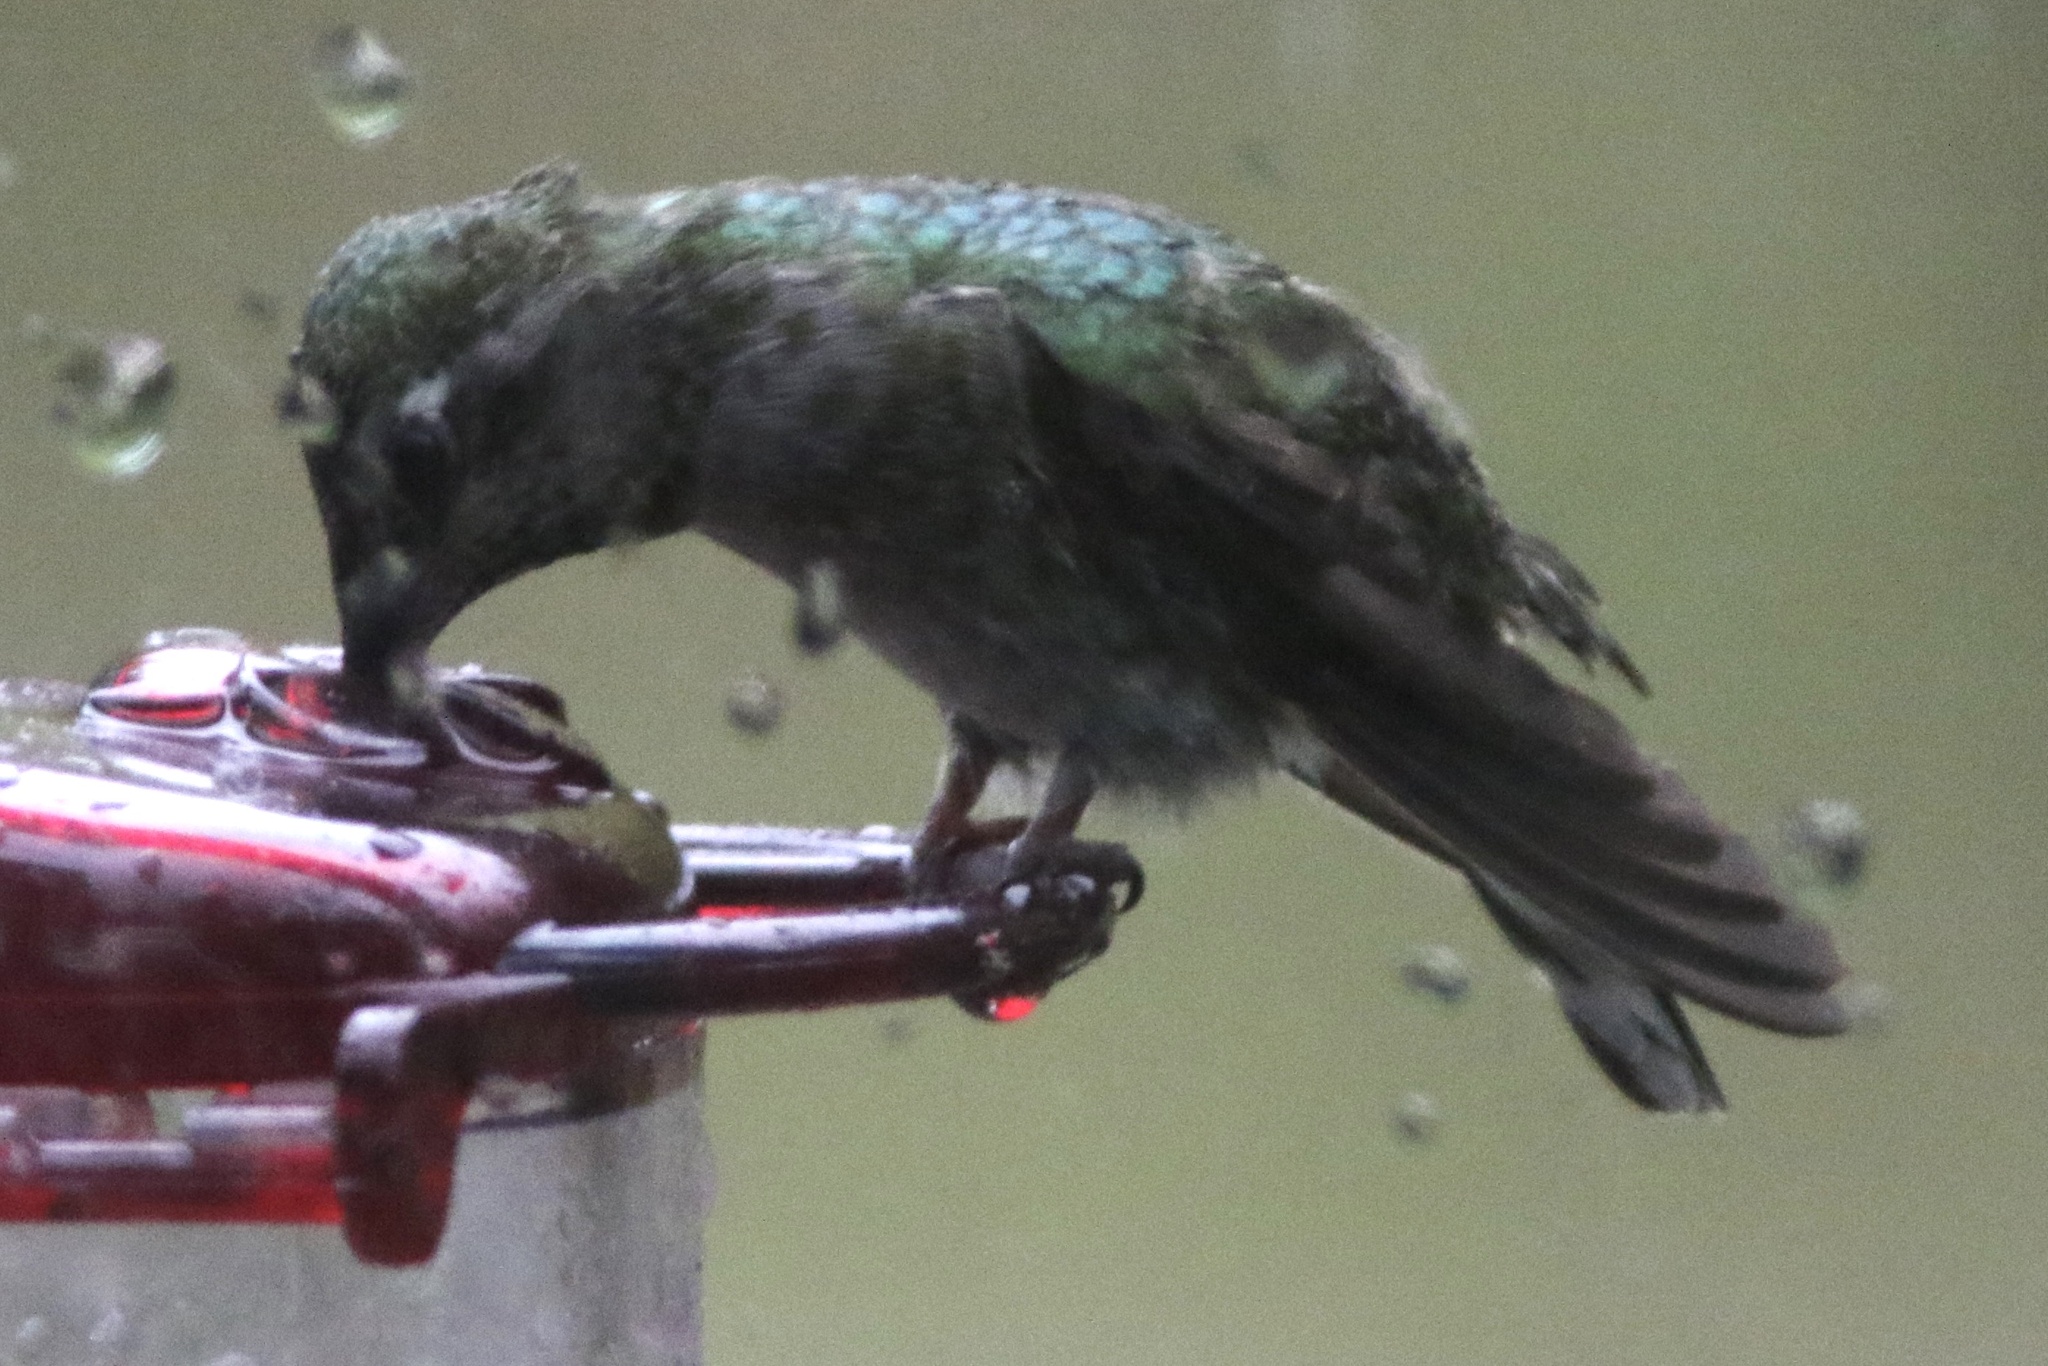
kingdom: Animalia
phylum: Chordata
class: Aves
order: Apodiformes
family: Trochilidae
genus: Calypte
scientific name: Calypte anna
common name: Anna's hummingbird
